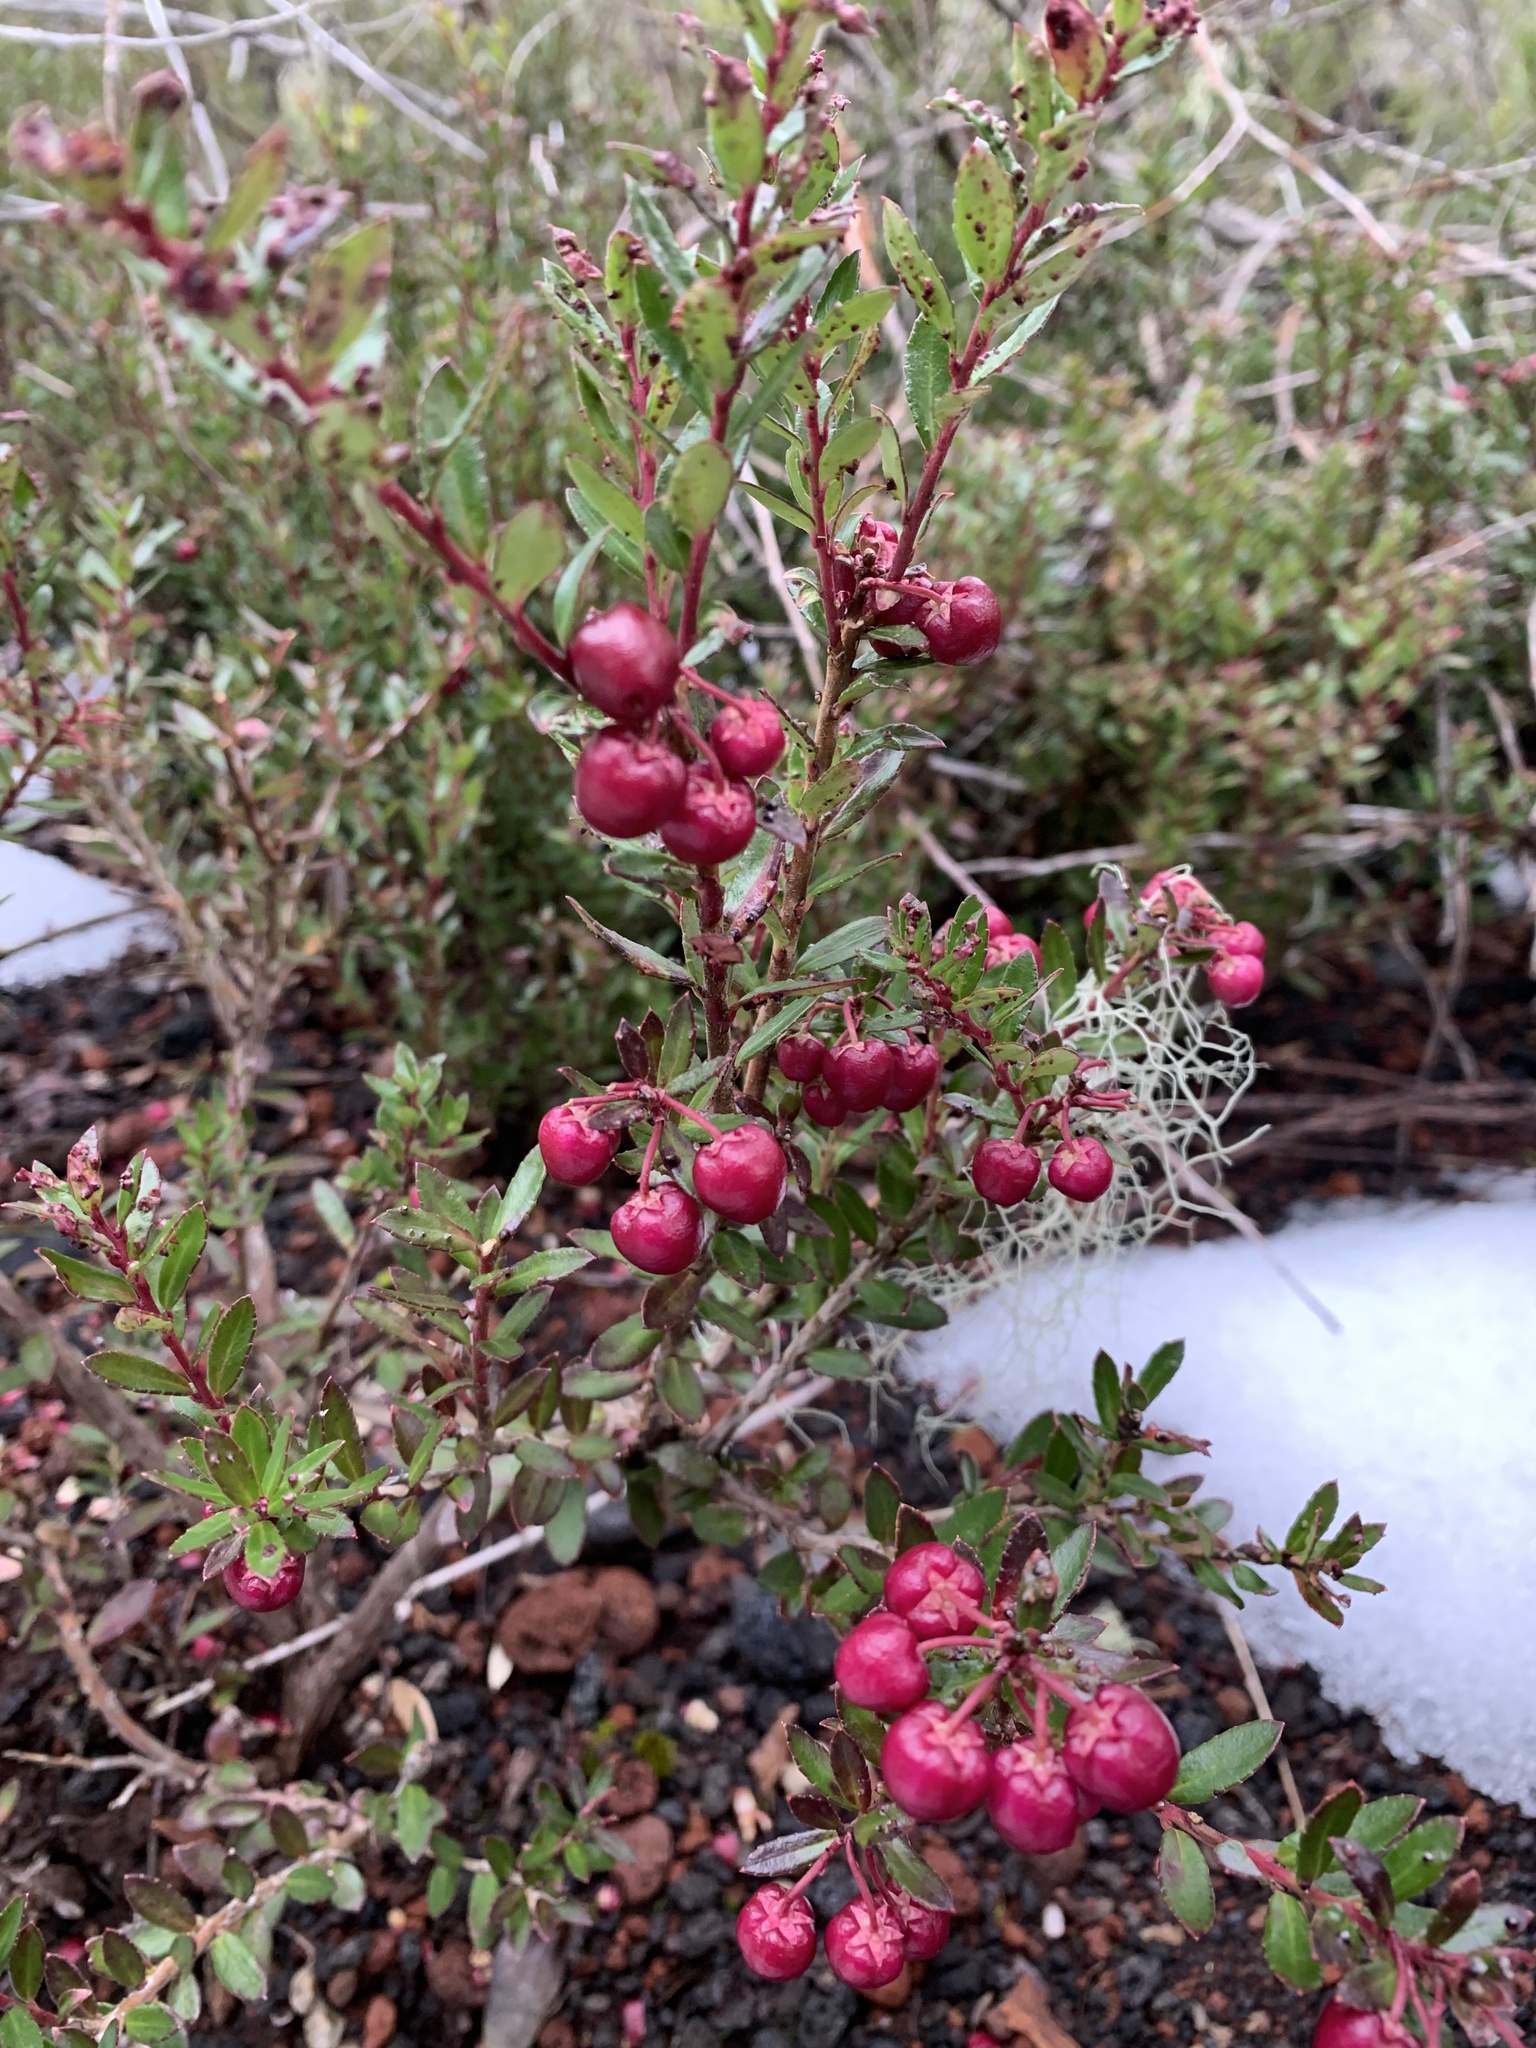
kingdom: Plantae
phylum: Tracheophyta
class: Magnoliopsida
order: Ericales
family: Ericaceae
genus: Gaultheria
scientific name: Gaultheria poeppigii
